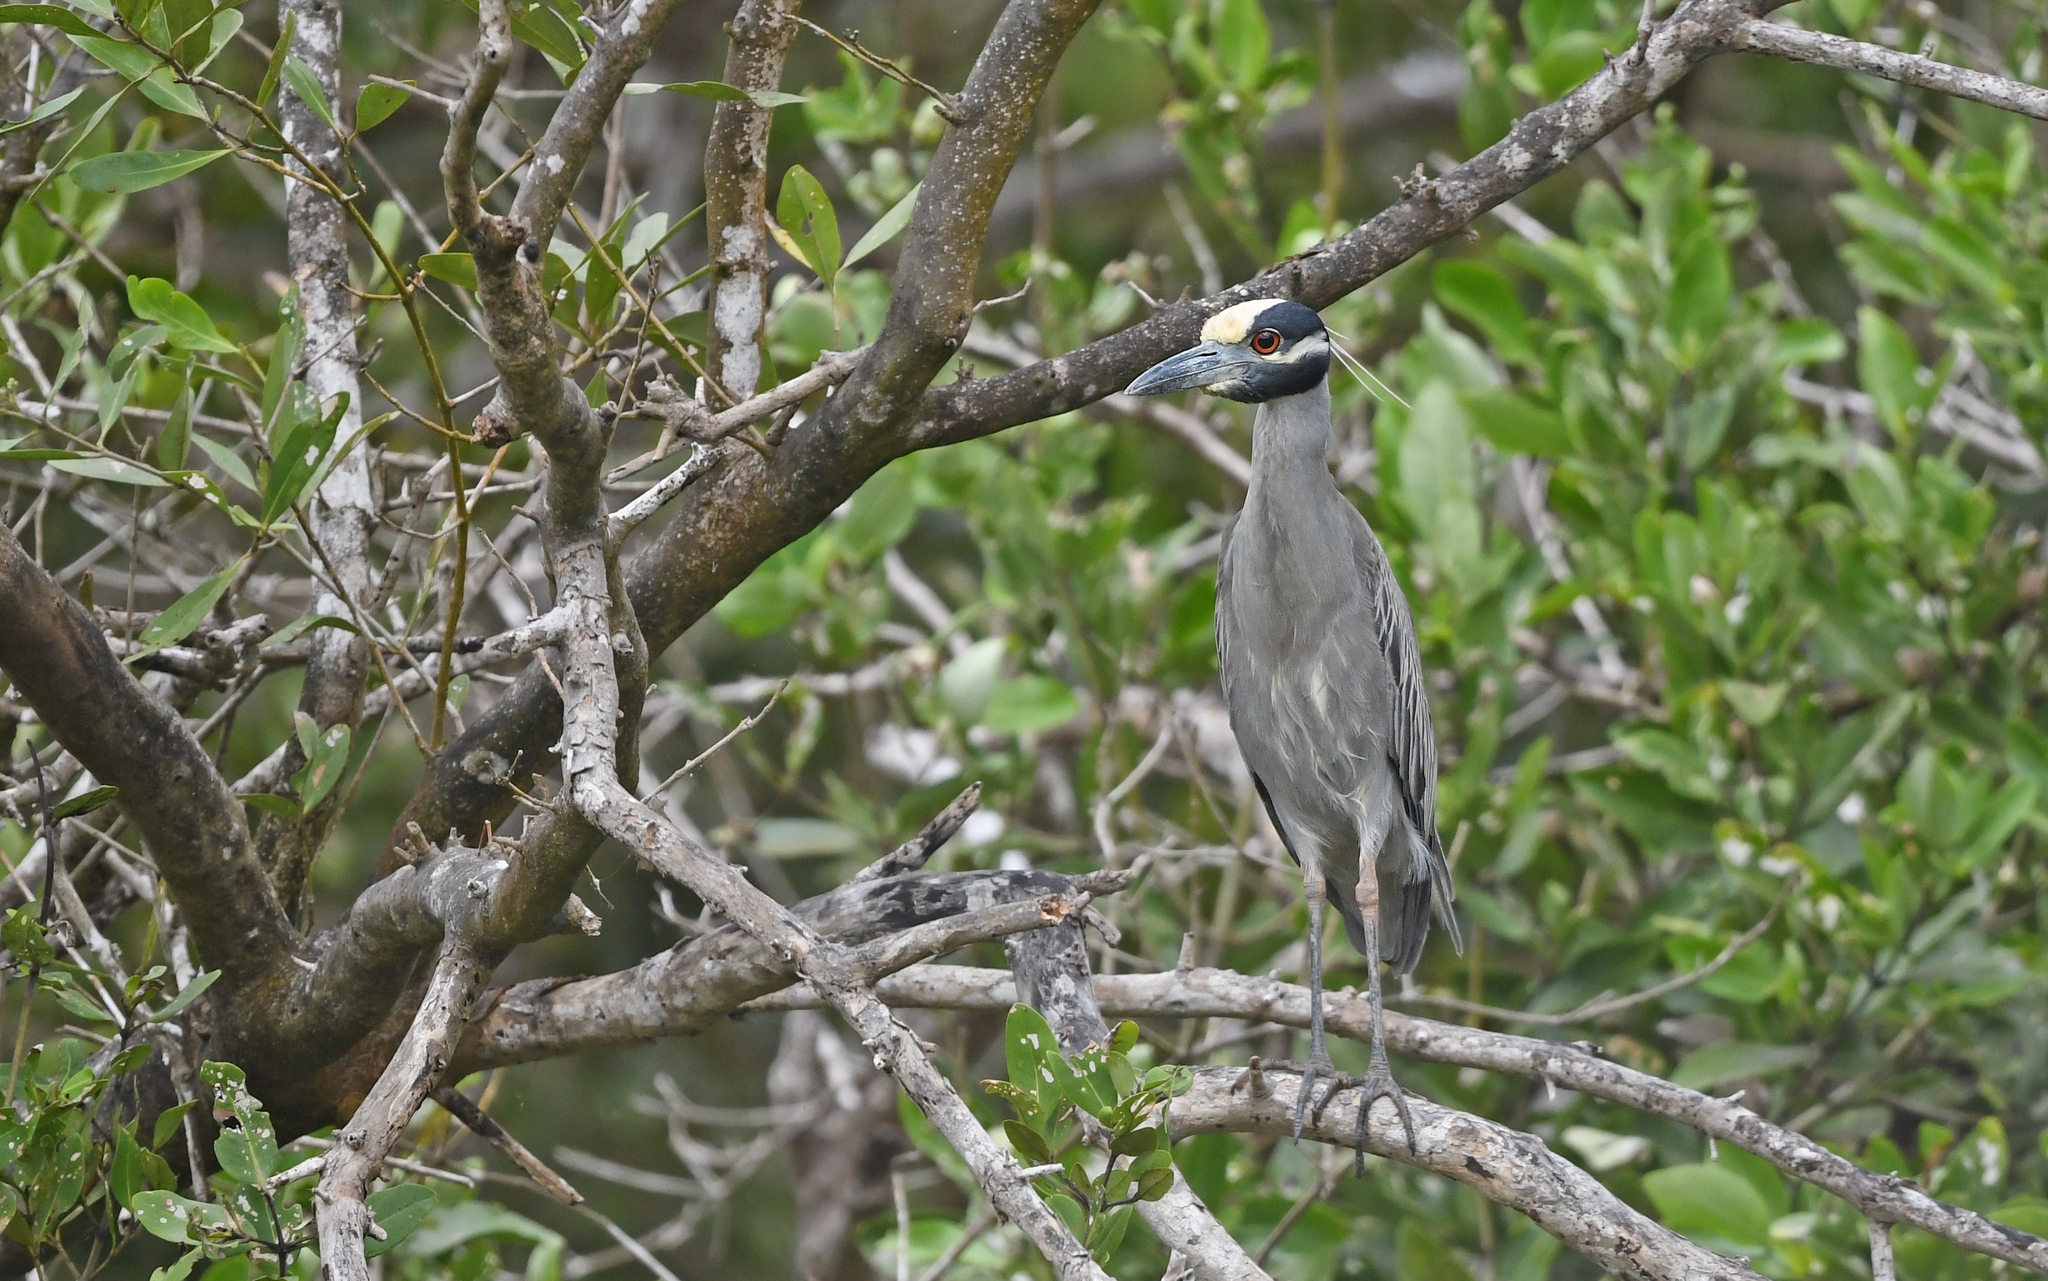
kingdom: Animalia
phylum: Chordata
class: Aves
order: Pelecaniformes
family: Ardeidae
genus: Nyctanassa
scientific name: Nyctanassa violacea
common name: Yellow-crowned night heron
